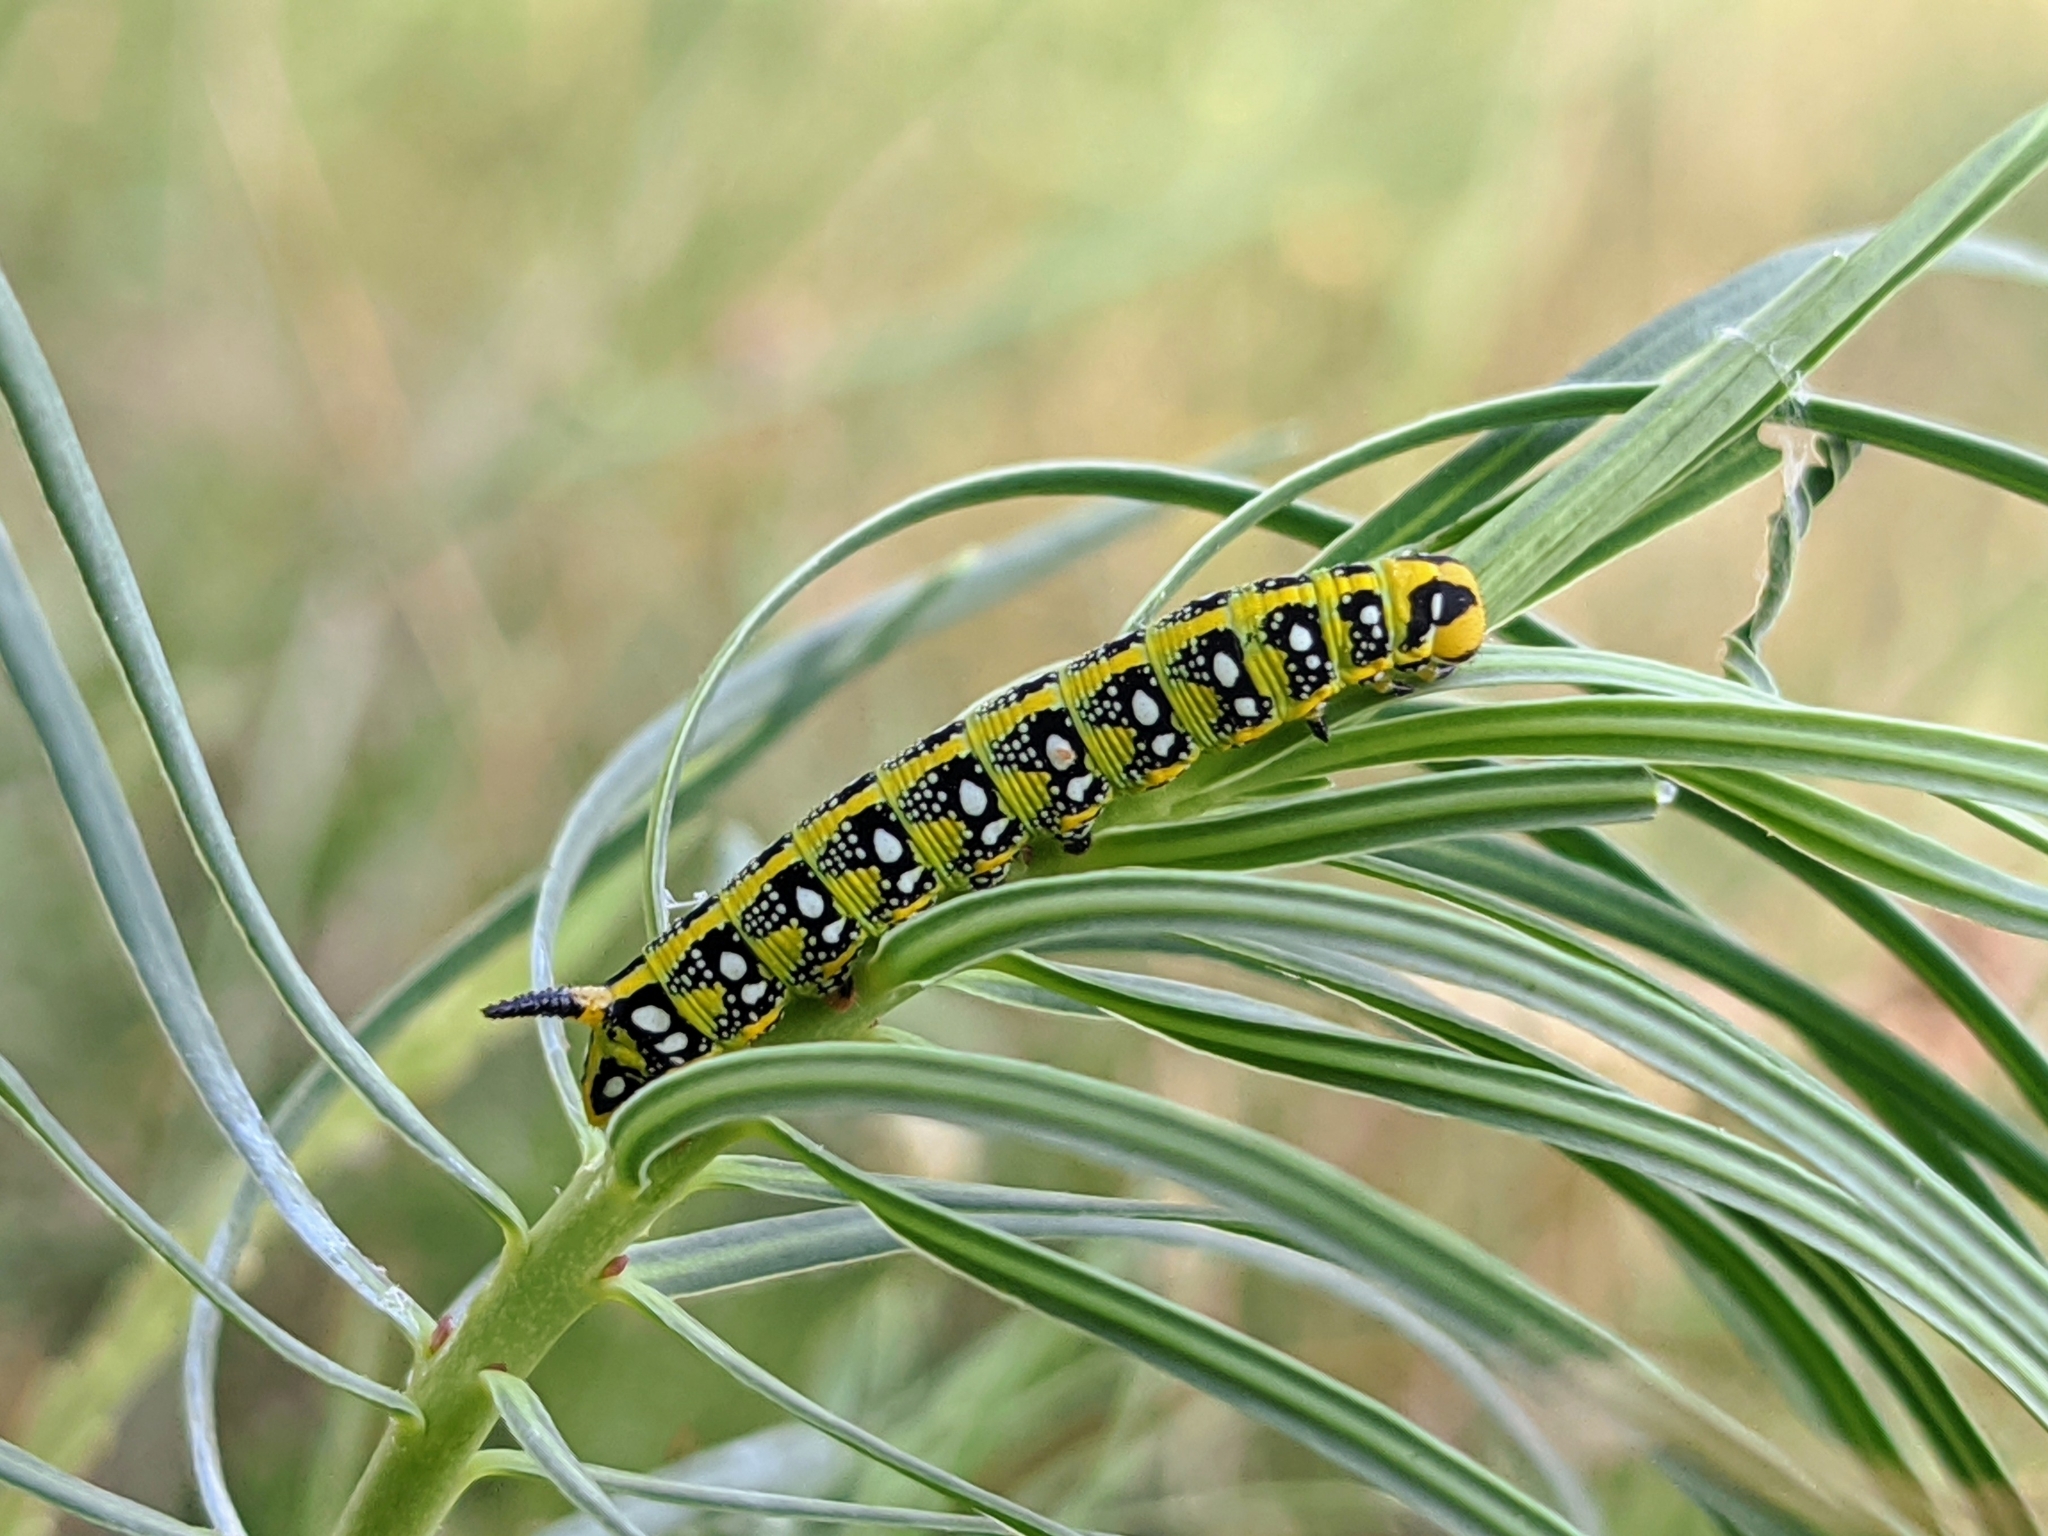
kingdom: Animalia
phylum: Arthropoda
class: Insecta
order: Lepidoptera
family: Sphingidae
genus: Hyles
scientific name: Hyles euphorbiae
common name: Spurge hawk-moth
